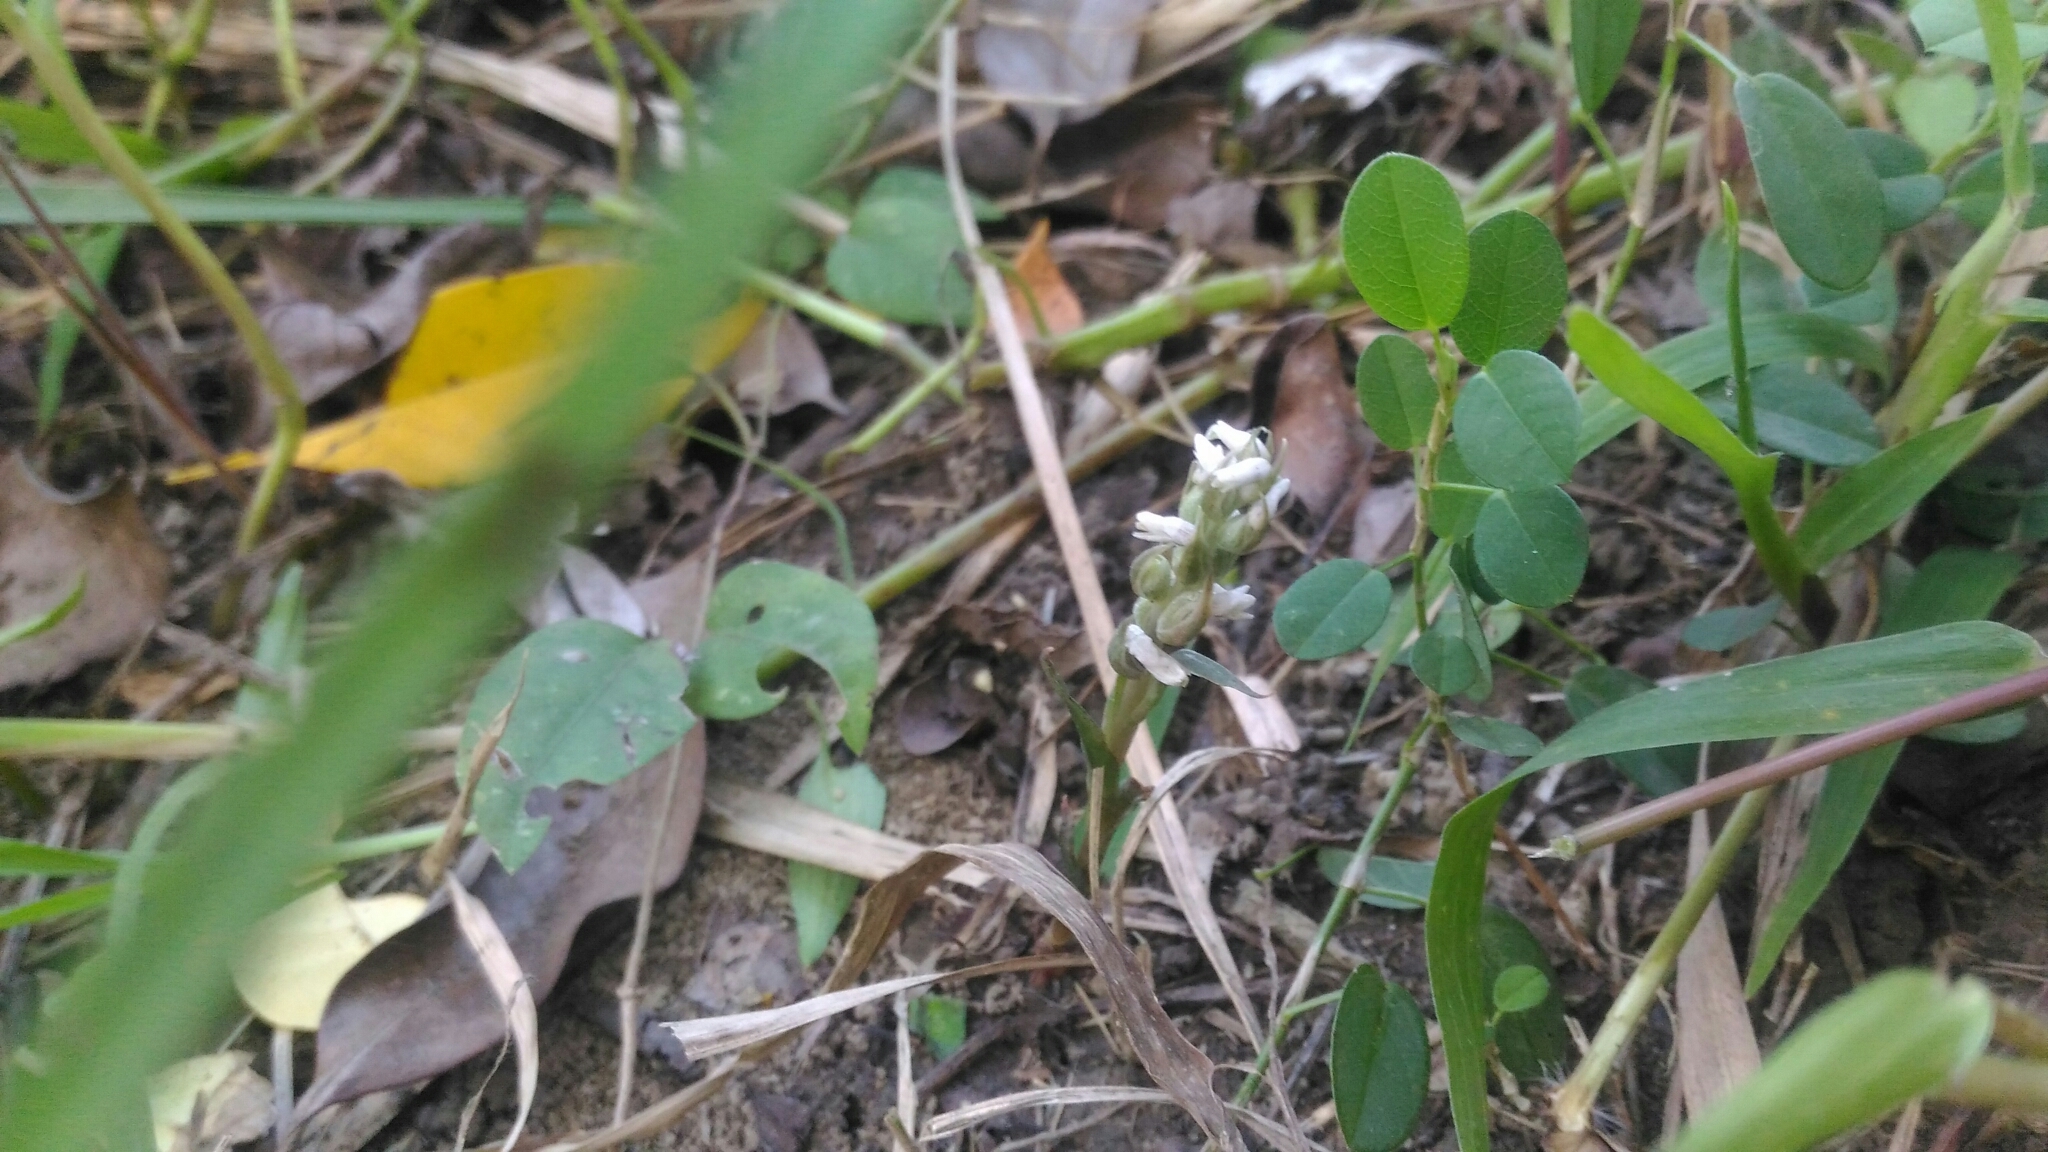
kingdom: Plantae
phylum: Tracheophyta
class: Liliopsida
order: Asparagales
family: Orchidaceae
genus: Zeuxine
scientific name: Zeuxine strateumatica
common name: Soldier's orchid
